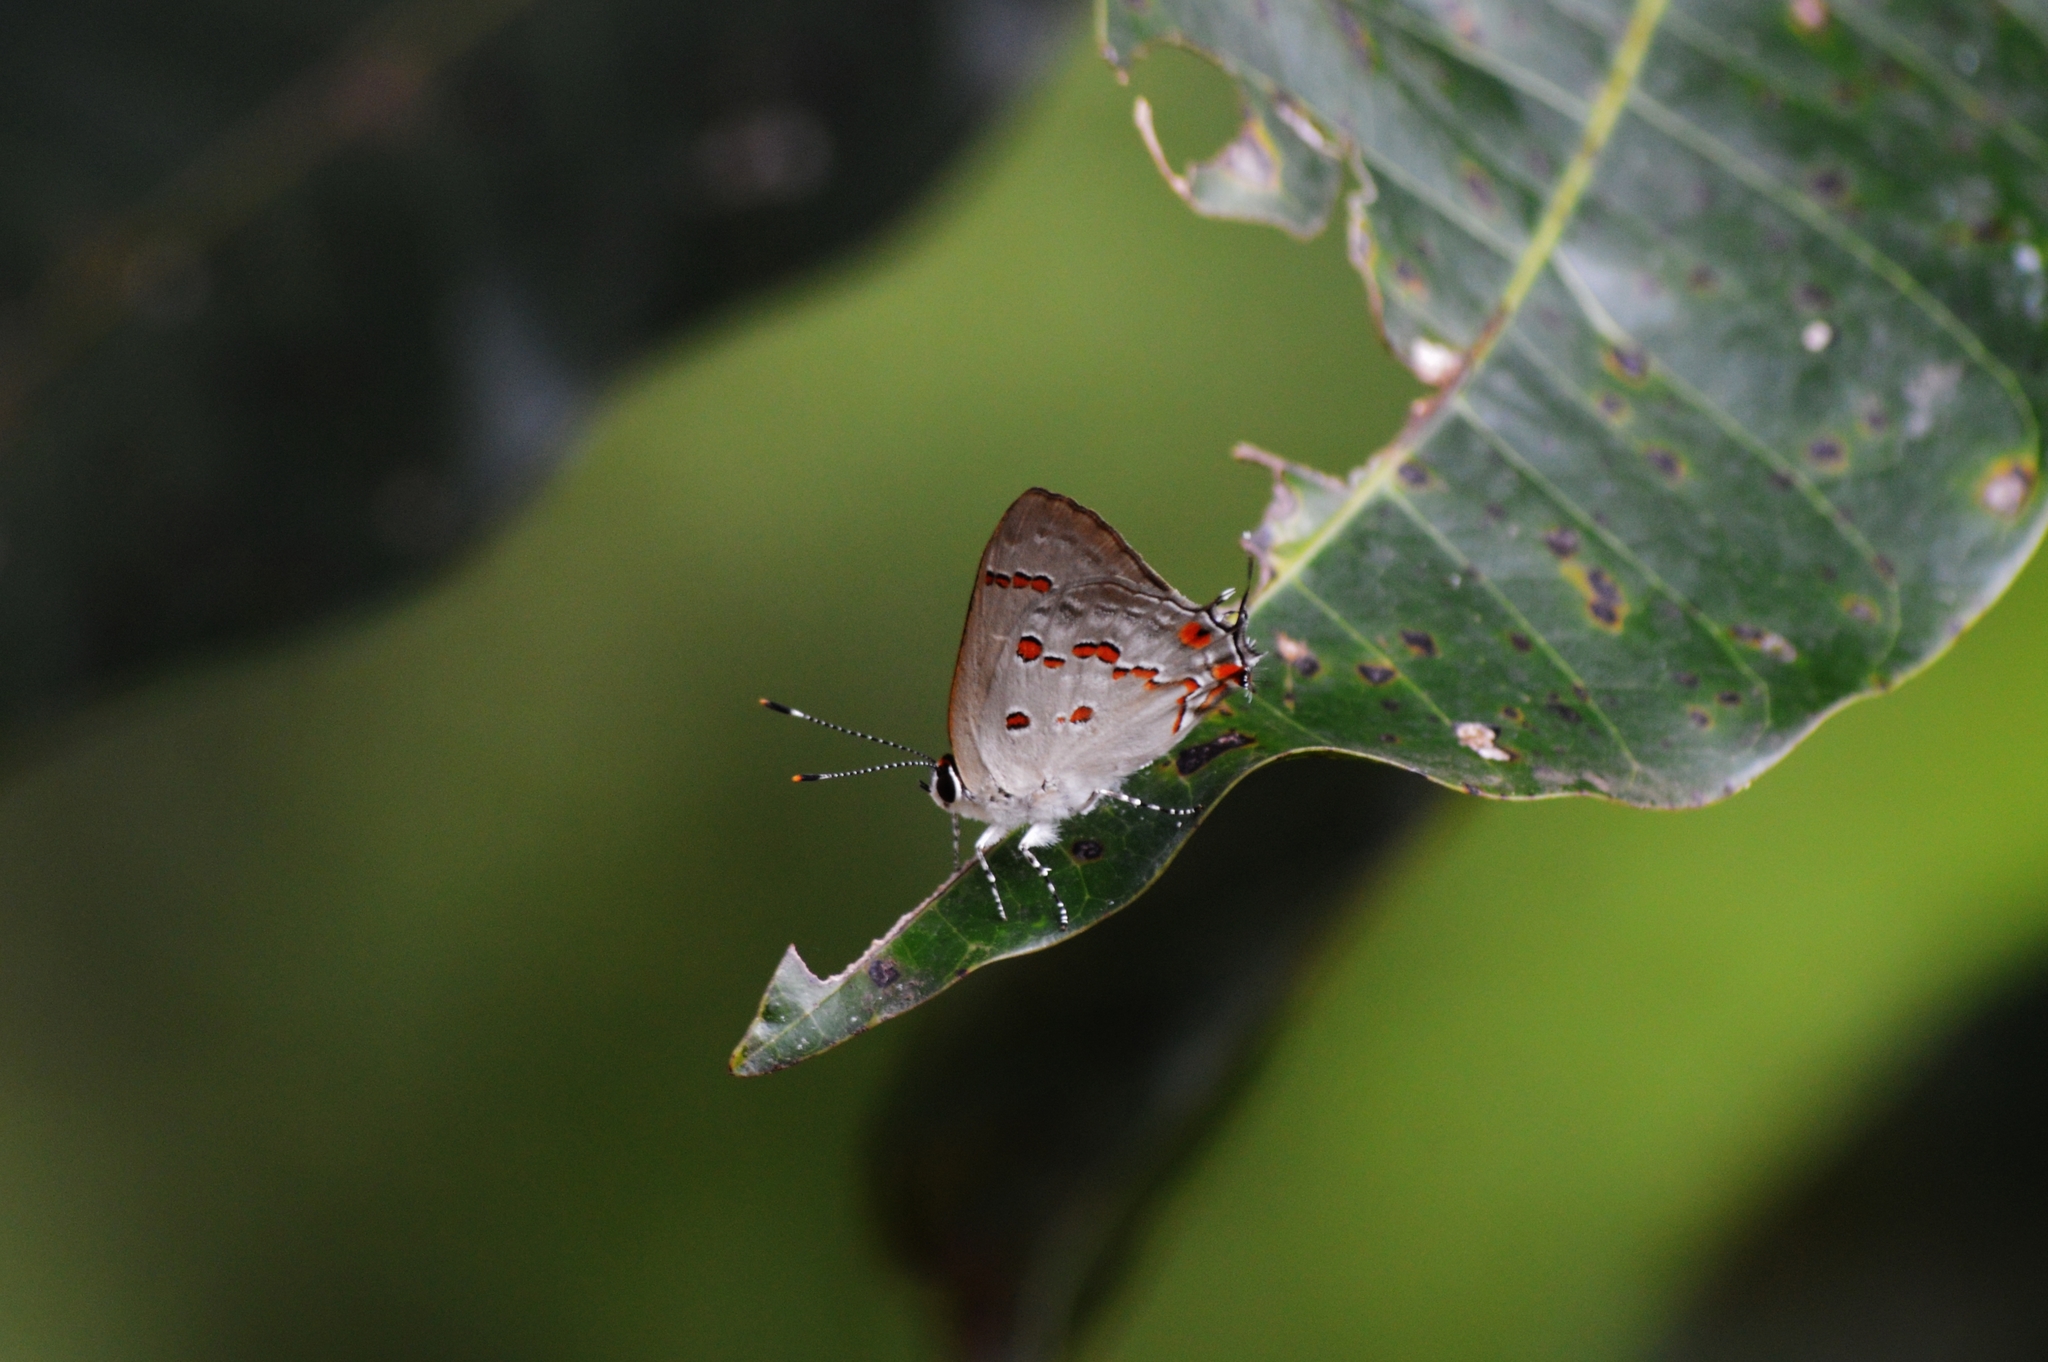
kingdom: Animalia
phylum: Arthropoda
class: Insecta
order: Lepidoptera
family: Lycaenidae
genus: Thecla
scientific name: Thecla ziba
